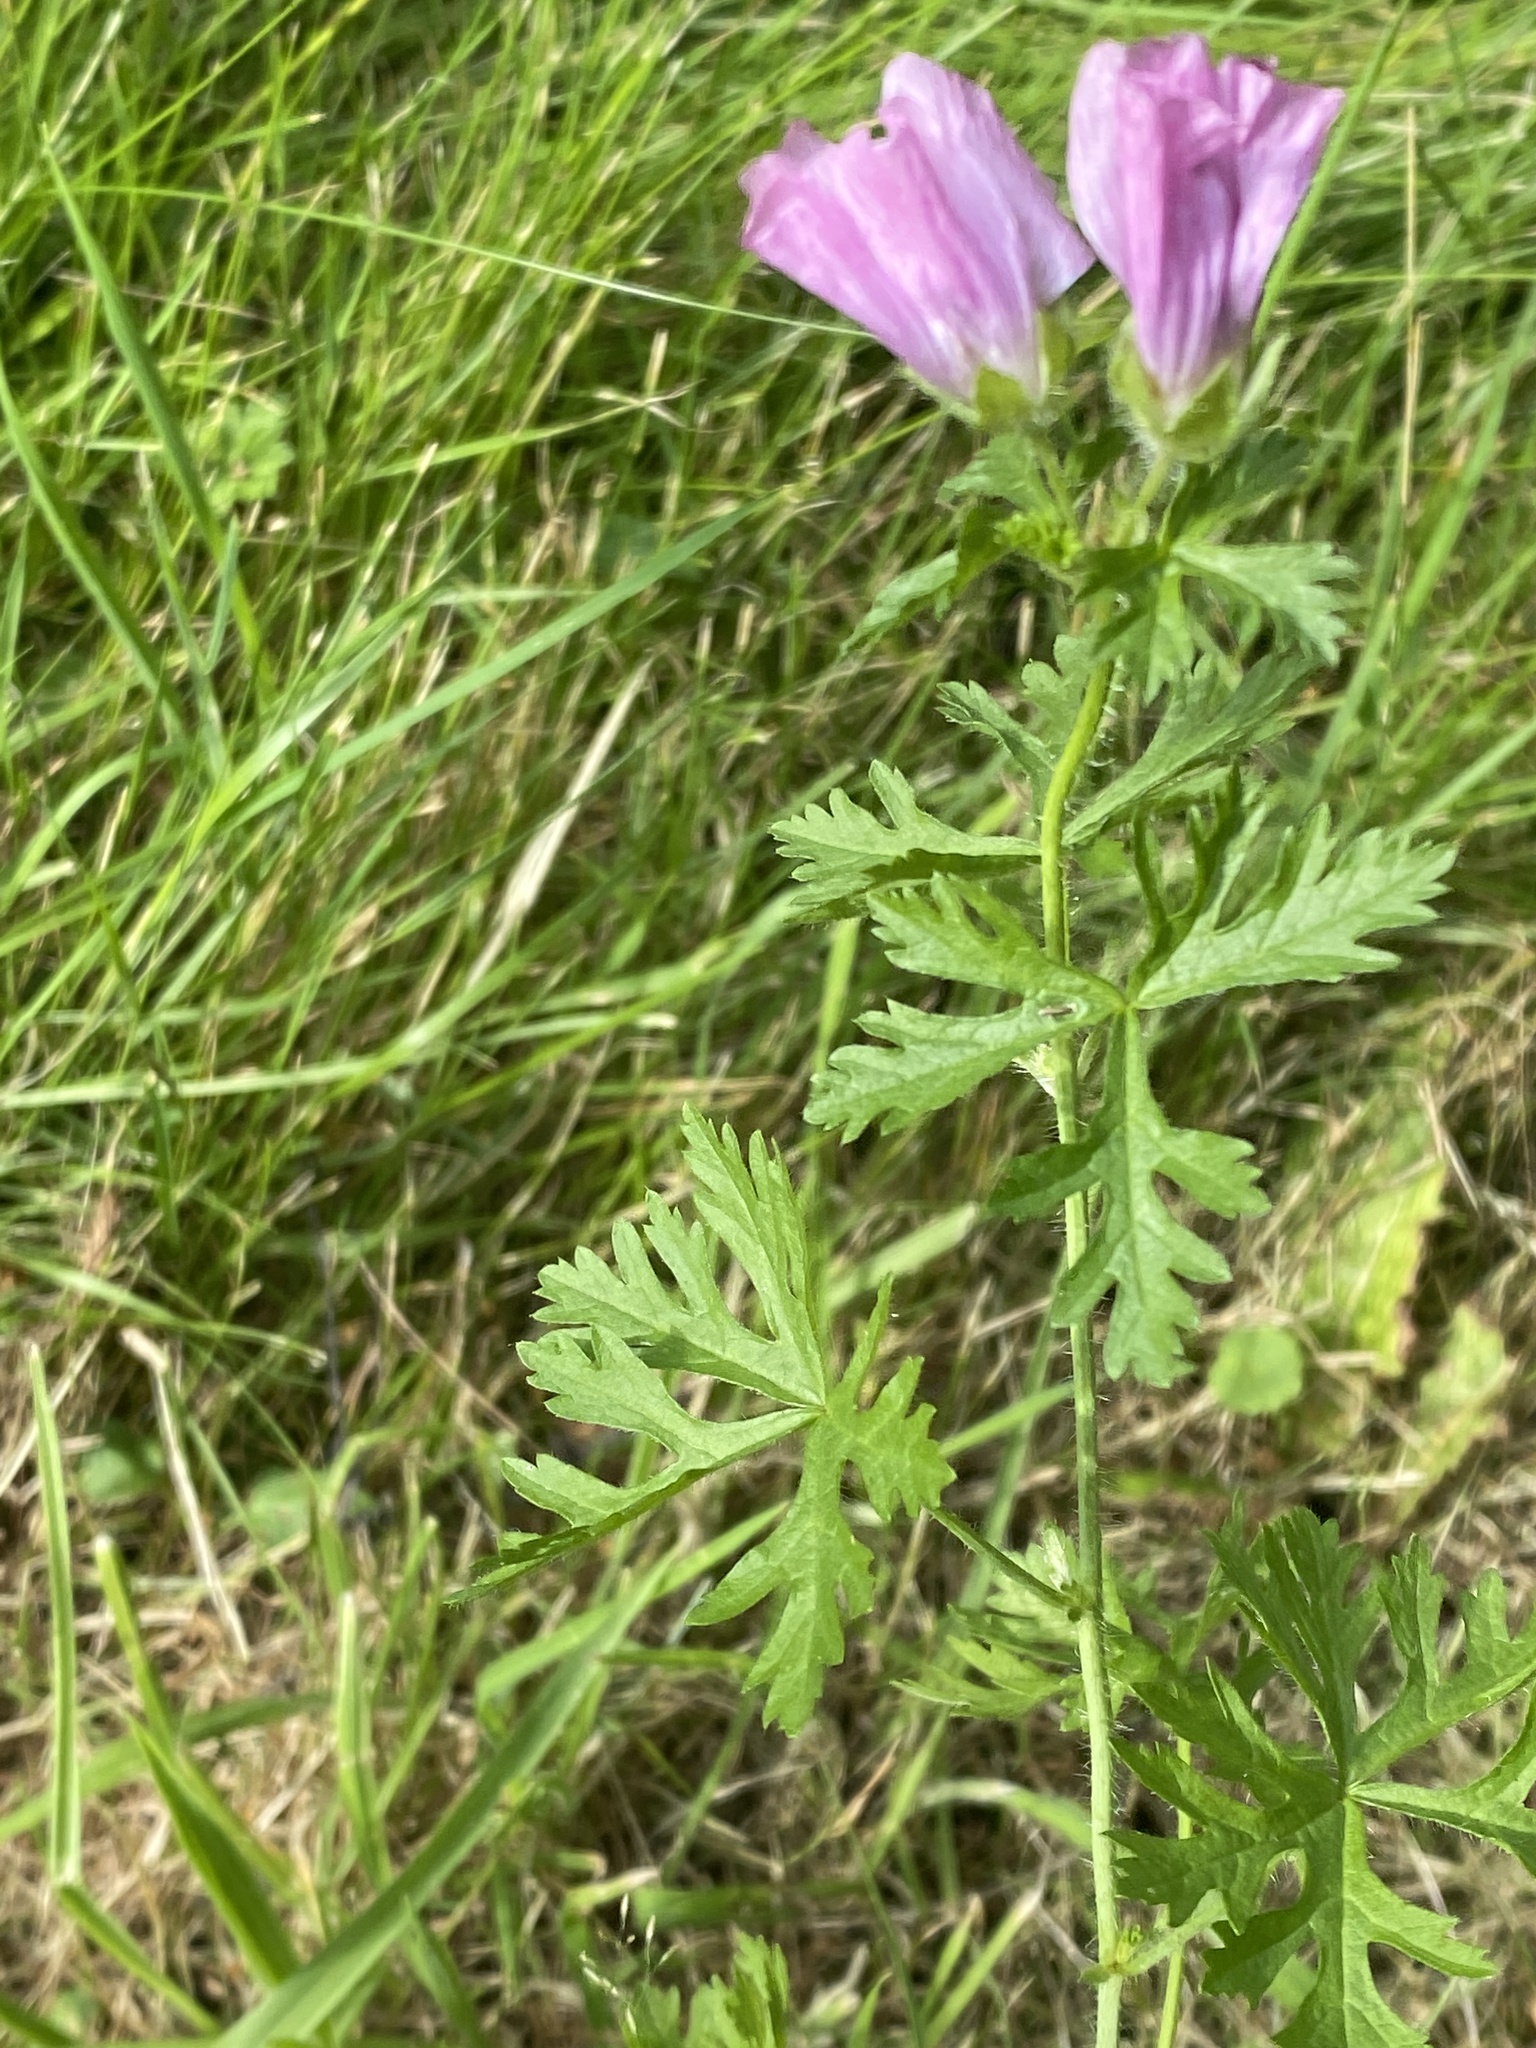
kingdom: Plantae
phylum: Tracheophyta
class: Magnoliopsida
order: Malvales
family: Malvaceae
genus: Malva
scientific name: Malva moschata
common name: Musk mallow
